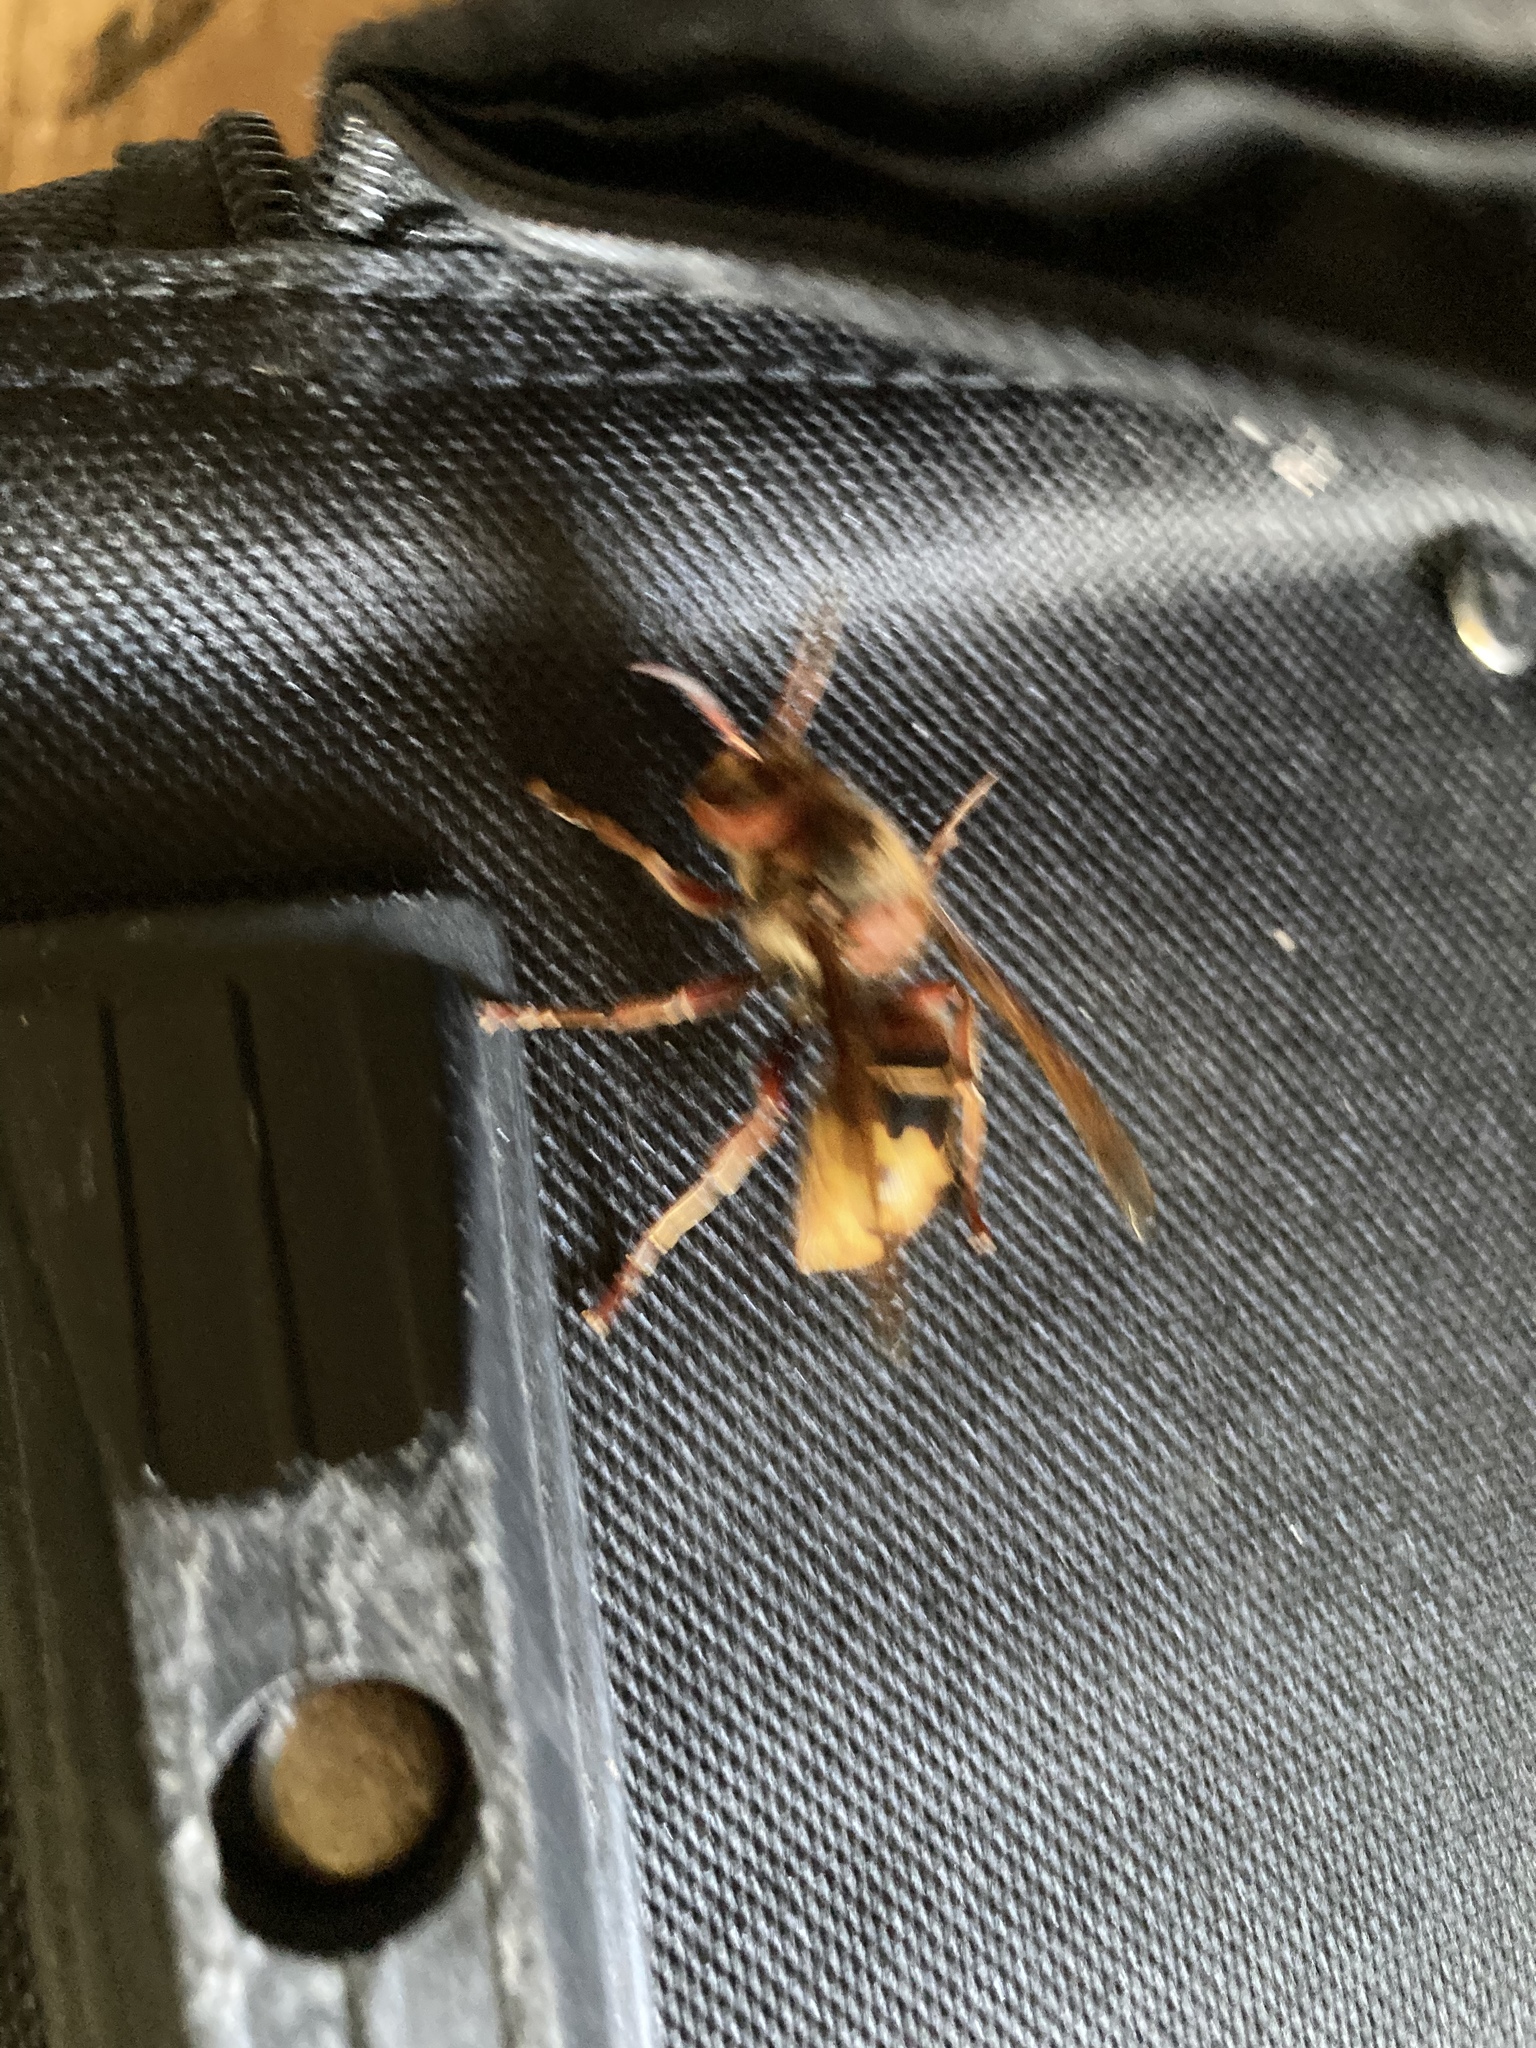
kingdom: Animalia
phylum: Arthropoda
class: Insecta
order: Hymenoptera
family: Vespidae
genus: Vespa
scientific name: Vespa crabro
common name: Hornet
